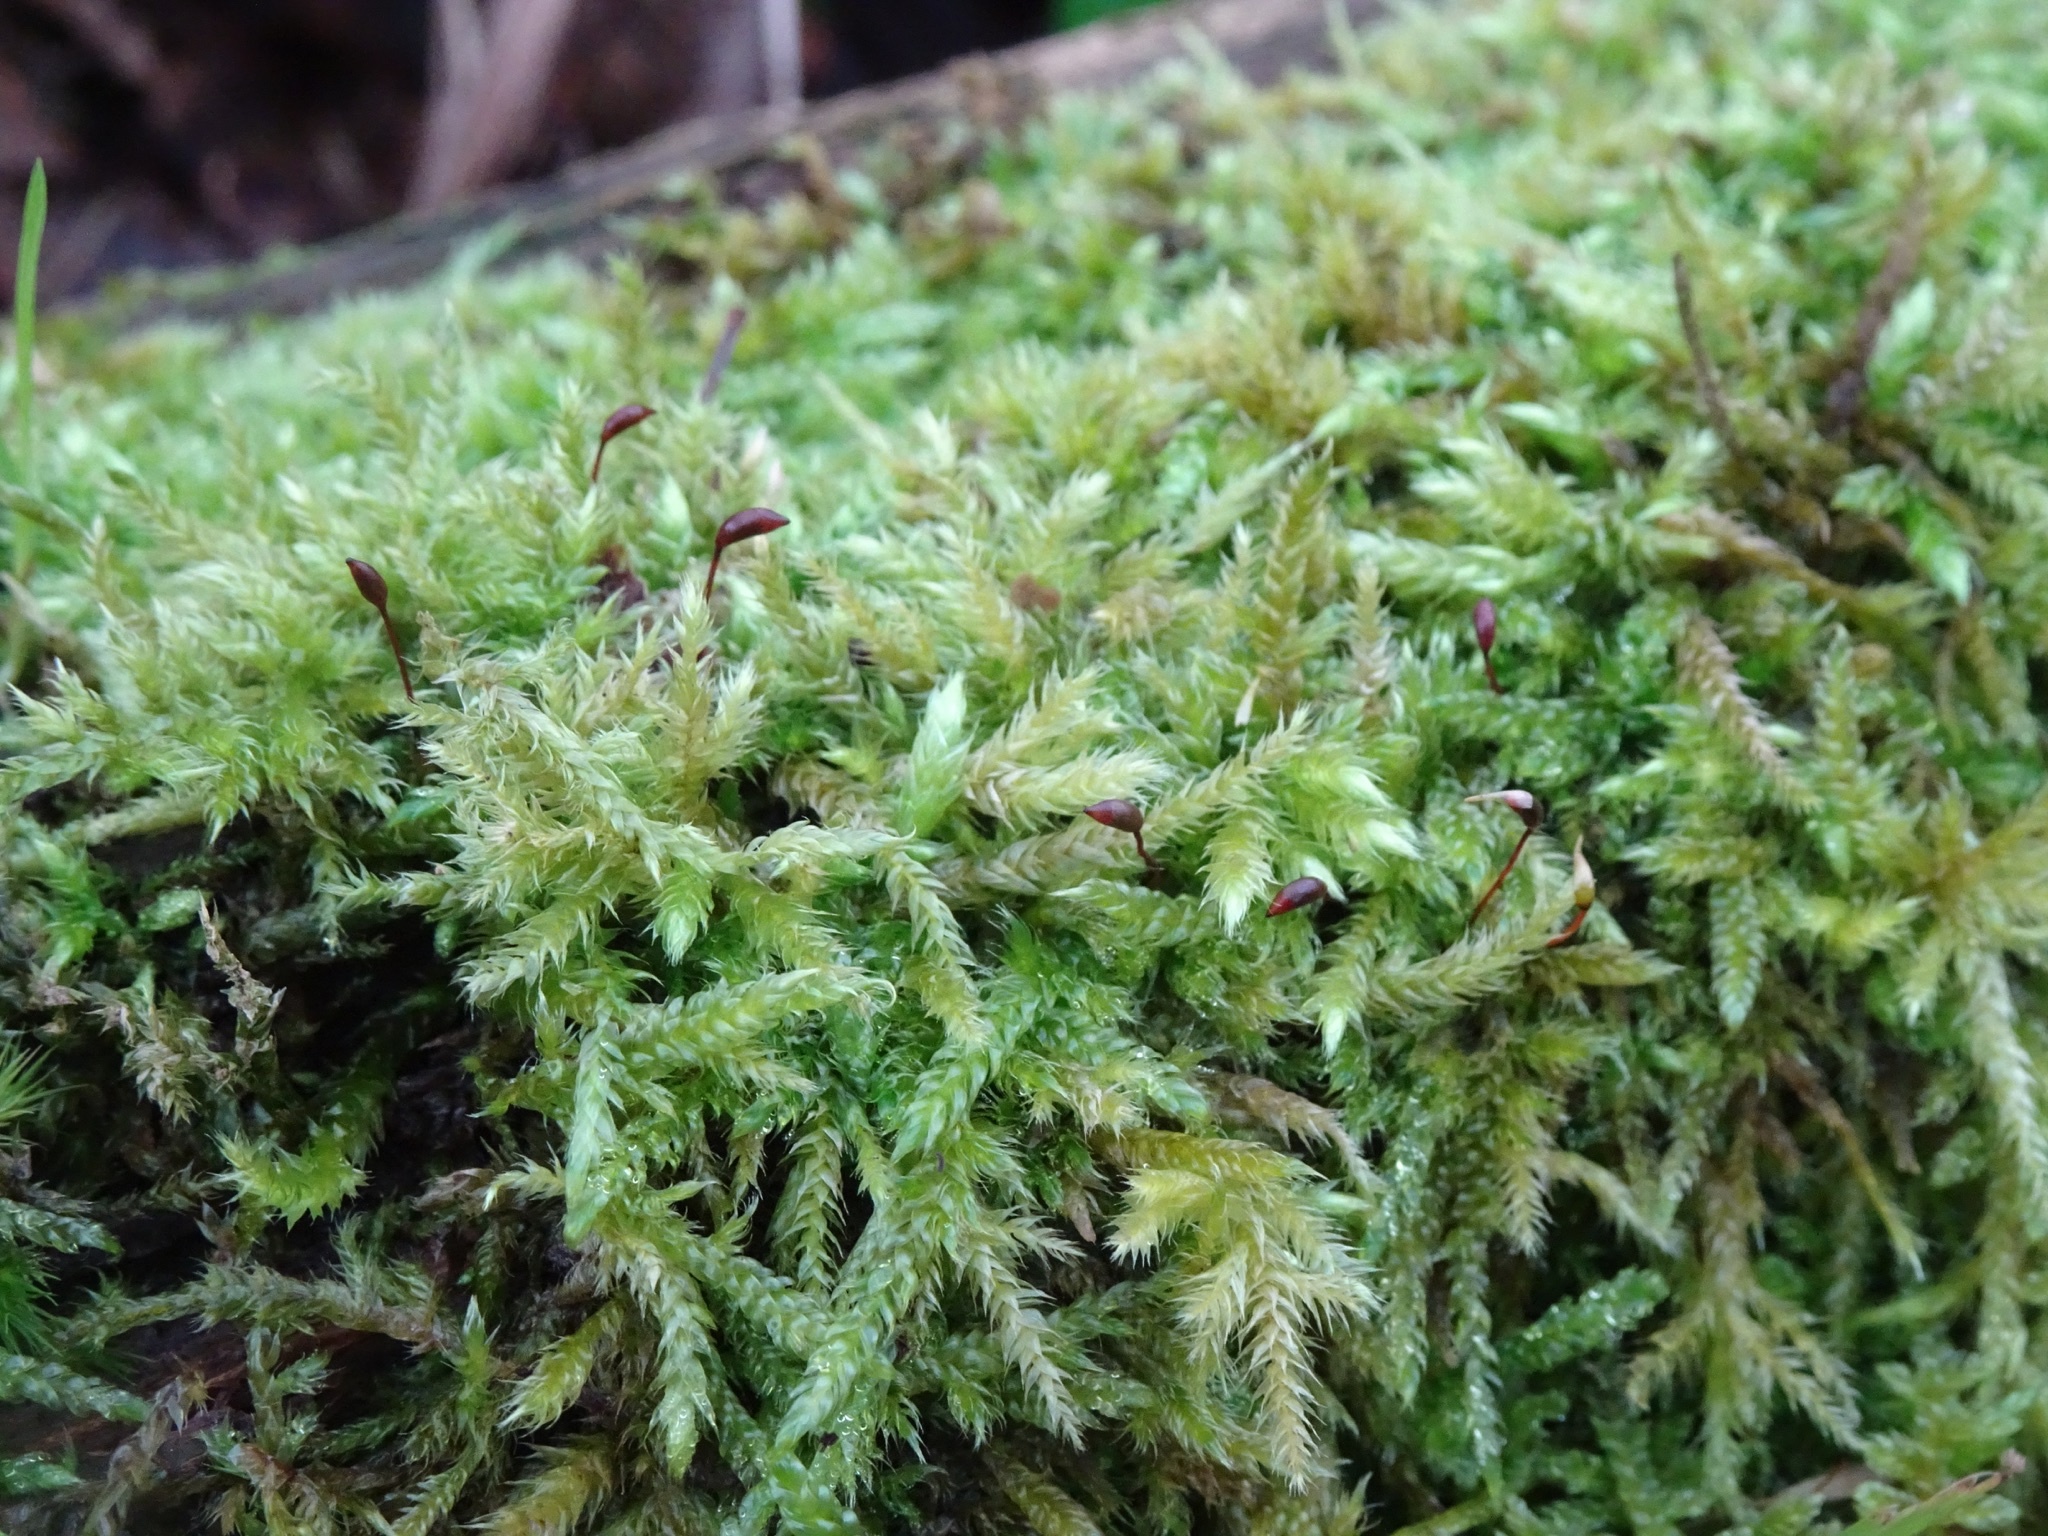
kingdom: Plantae
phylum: Bryophyta
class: Bryopsida
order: Hypnales
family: Brachytheciaceae
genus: Brachythecium
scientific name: Brachythecium rutabulum
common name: Rough-stalked feather-moss
